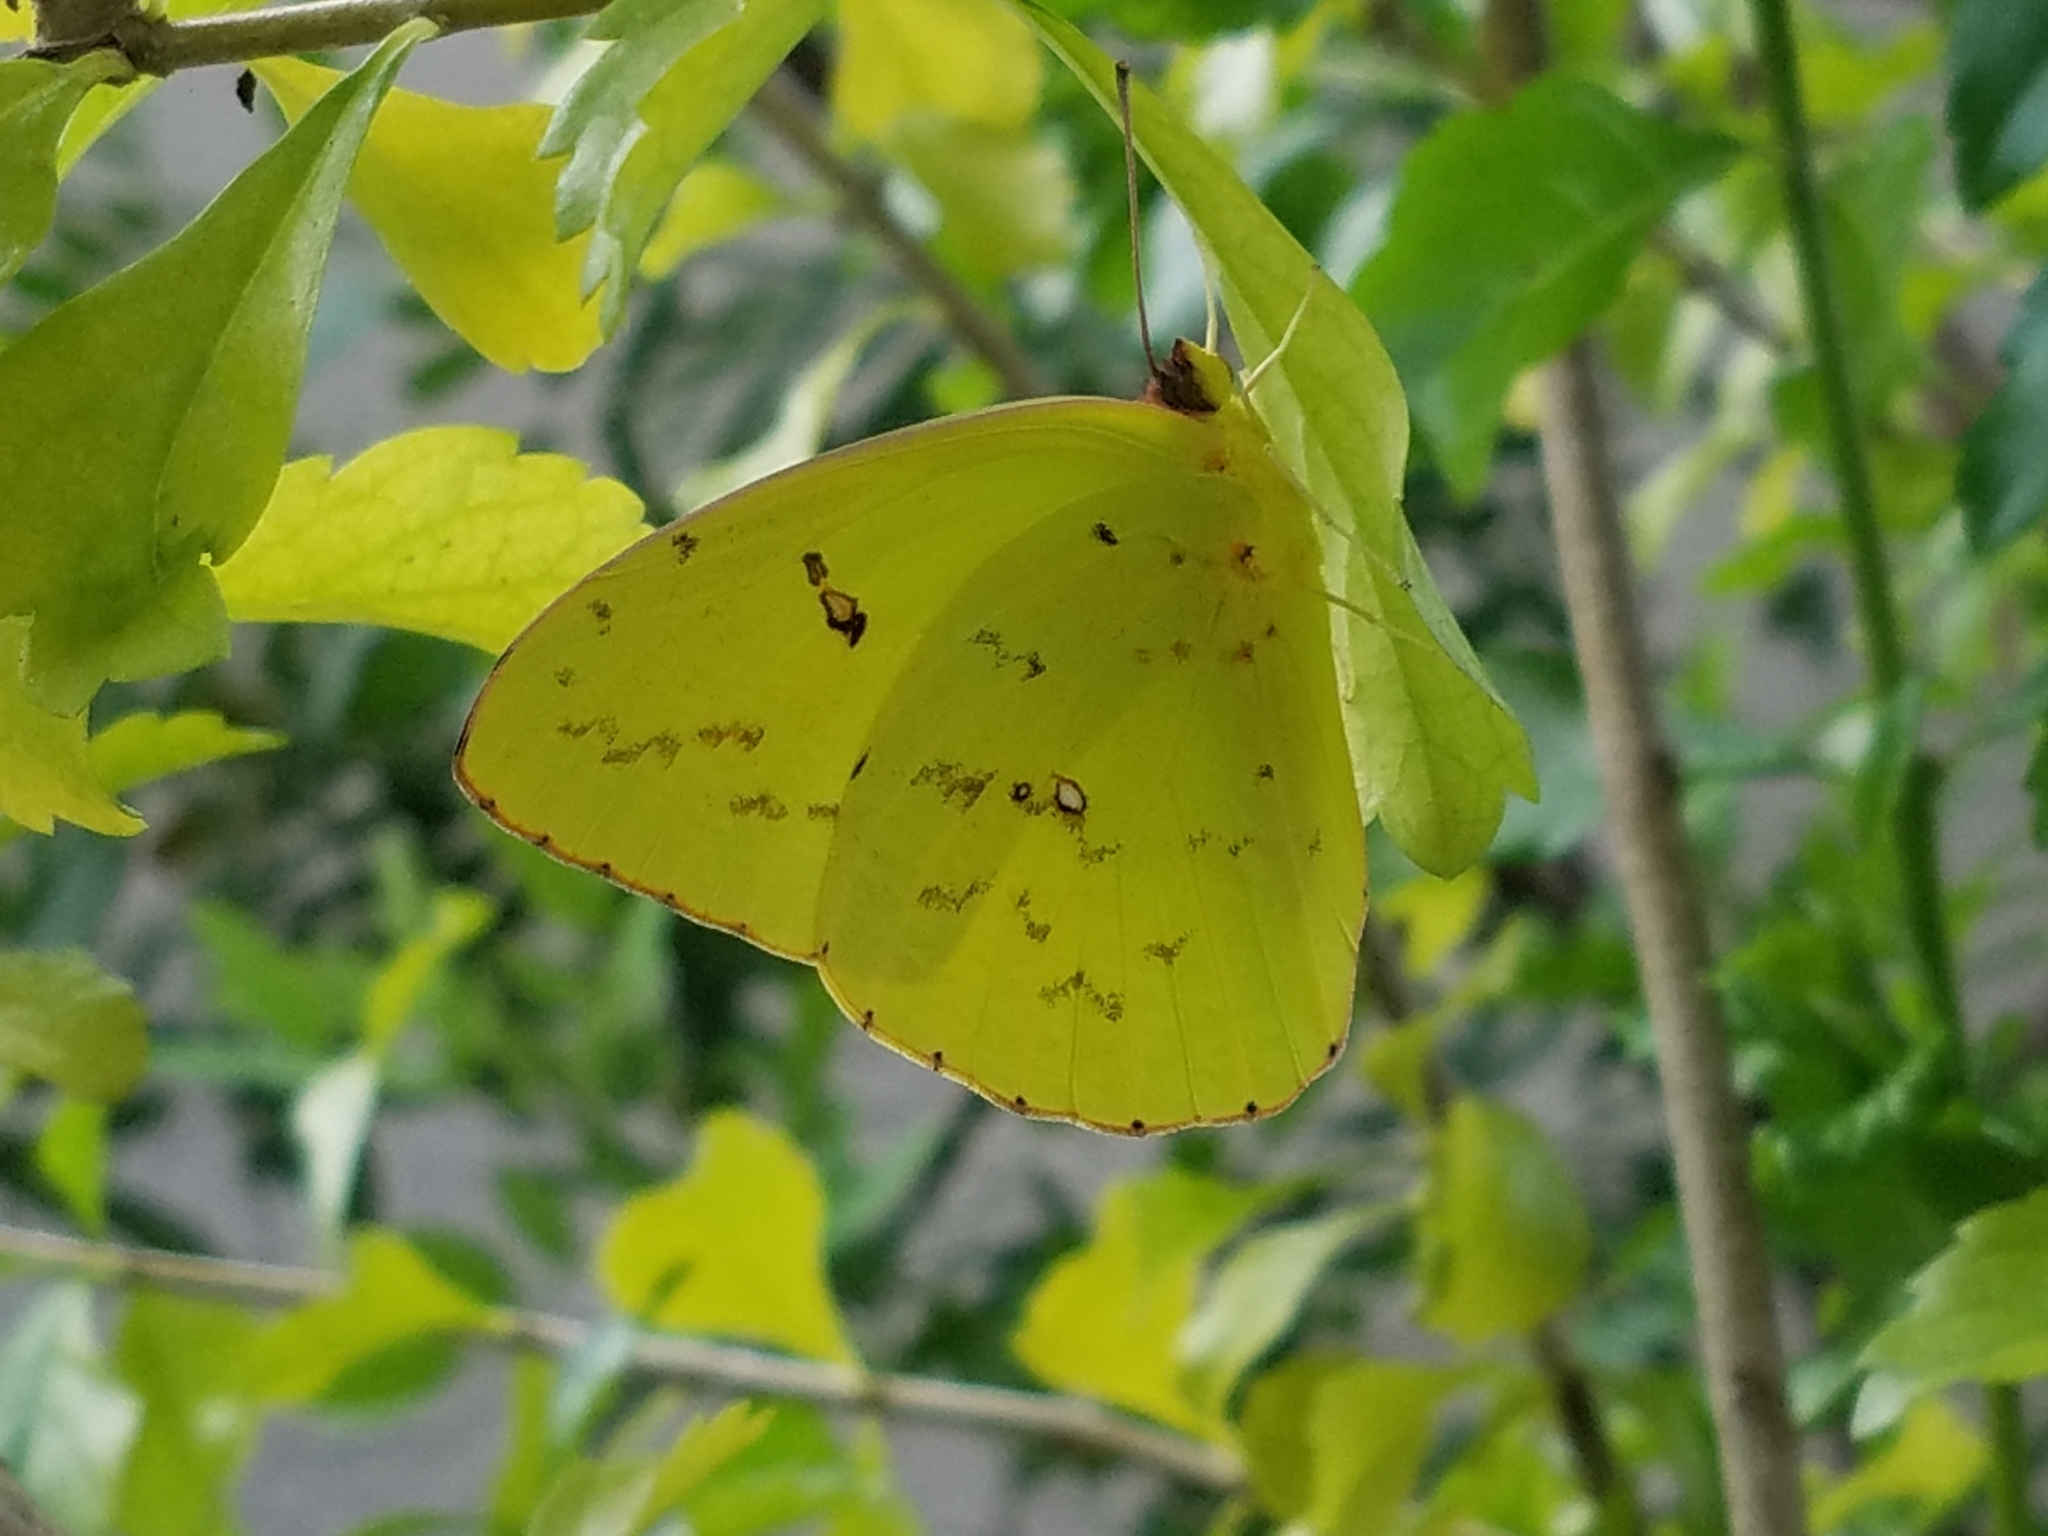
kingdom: Animalia
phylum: Arthropoda
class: Insecta
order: Lepidoptera
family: Pieridae
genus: Phoebis
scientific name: Phoebis sennae
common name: Cloudless sulphur
